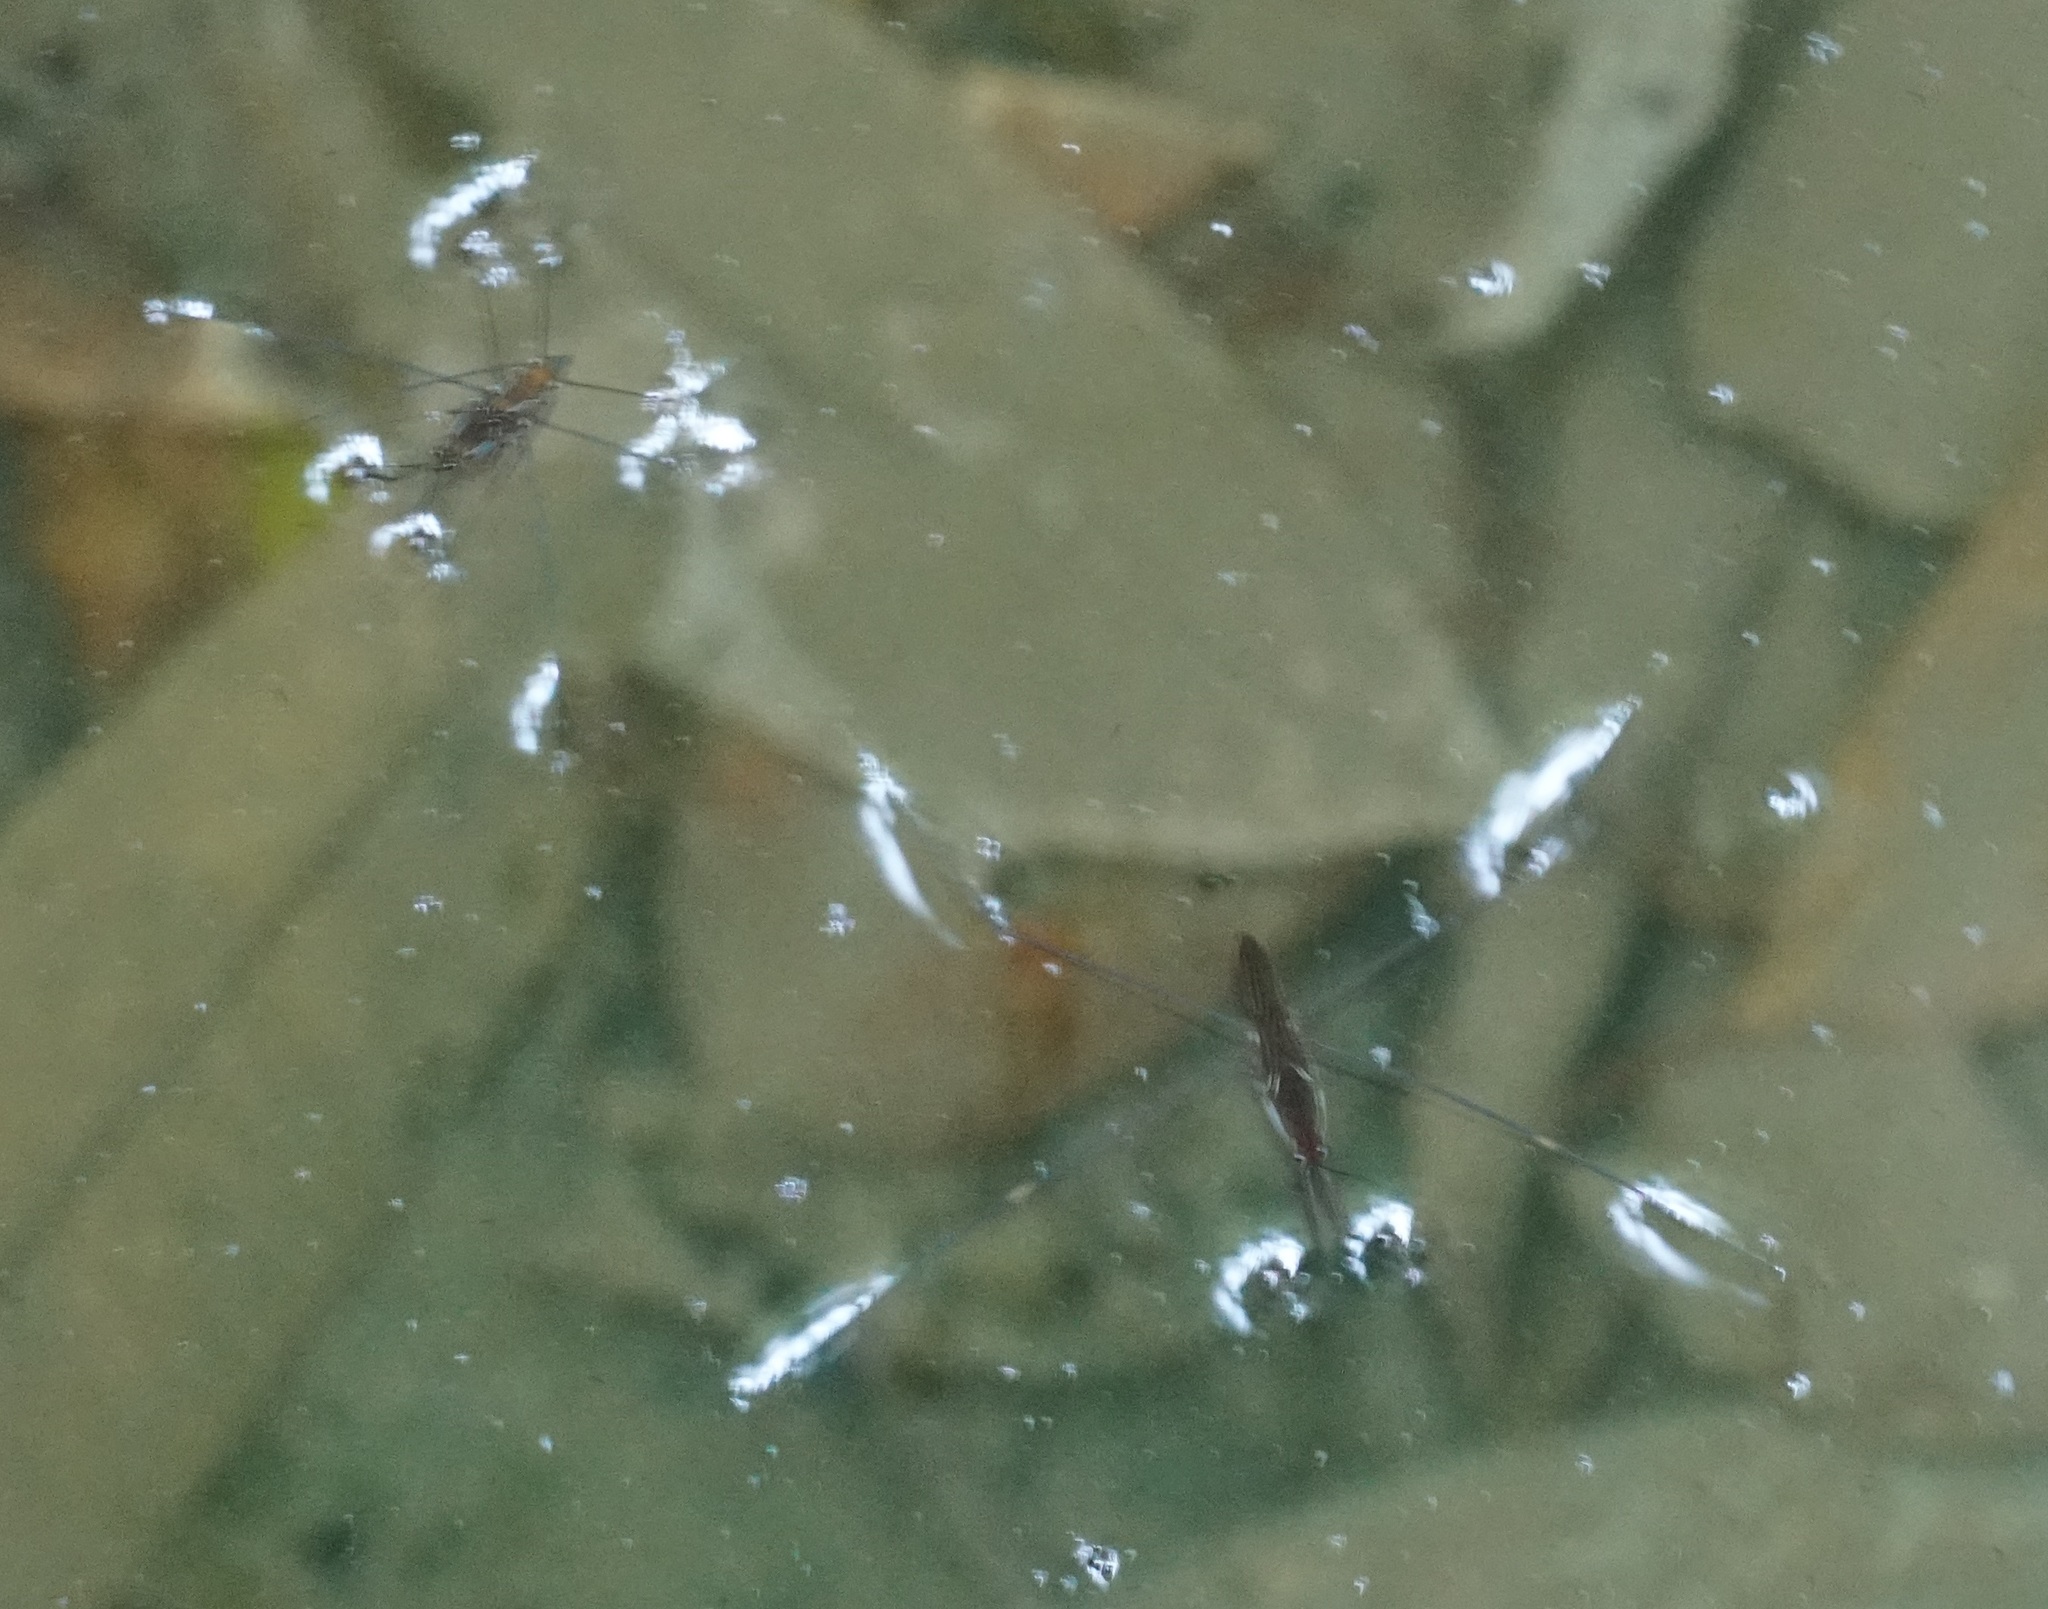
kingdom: Animalia
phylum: Arthropoda
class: Insecta
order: Hemiptera
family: Gerridae
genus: Limnometra
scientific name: Limnometra
